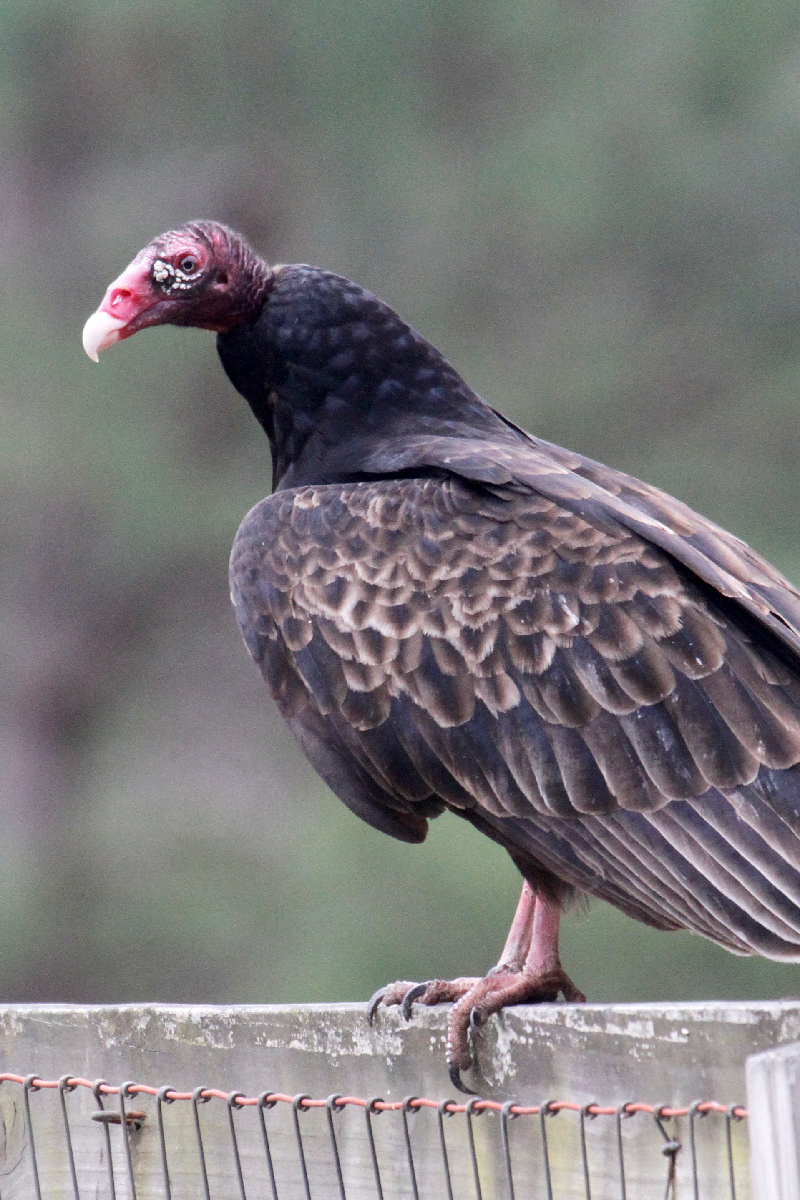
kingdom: Animalia
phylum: Chordata
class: Aves
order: Accipitriformes
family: Cathartidae
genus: Cathartes
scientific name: Cathartes aura
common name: Turkey vulture
